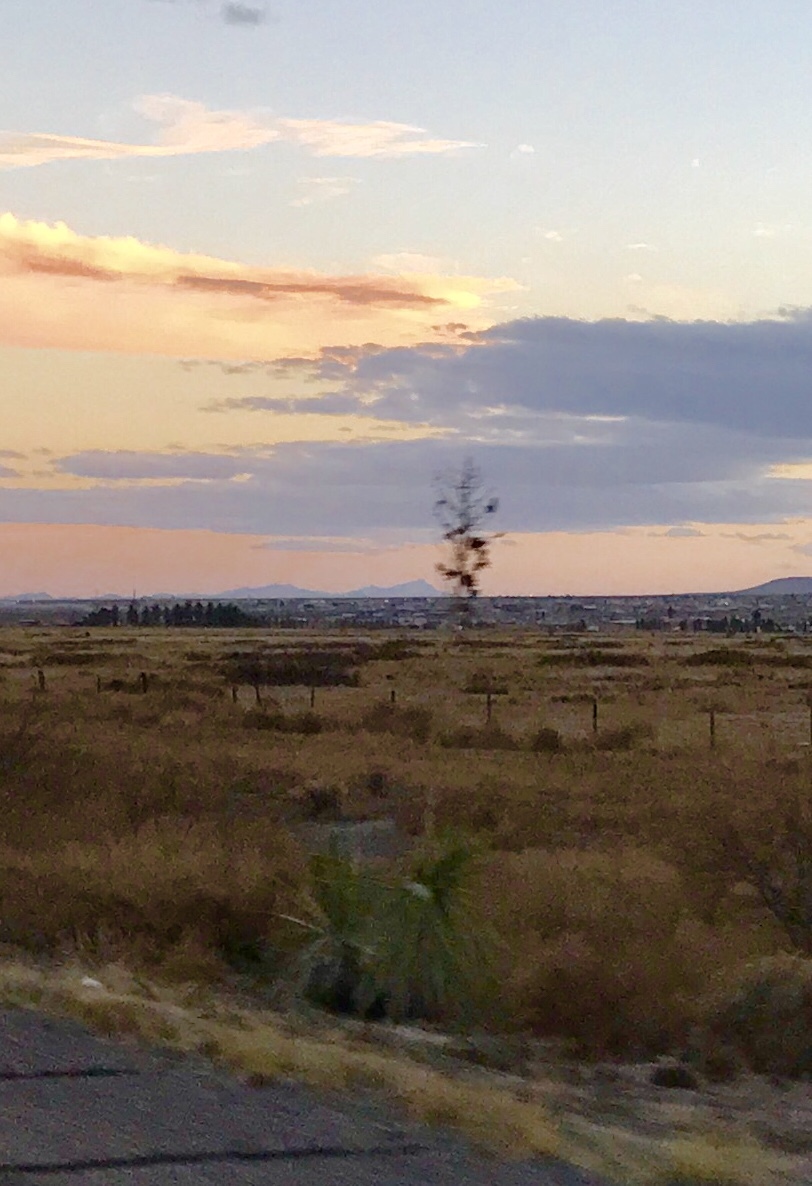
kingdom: Plantae
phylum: Tracheophyta
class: Liliopsida
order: Asparagales
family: Asparagaceae
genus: Yucca
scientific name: Yucca elata
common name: Palmella
